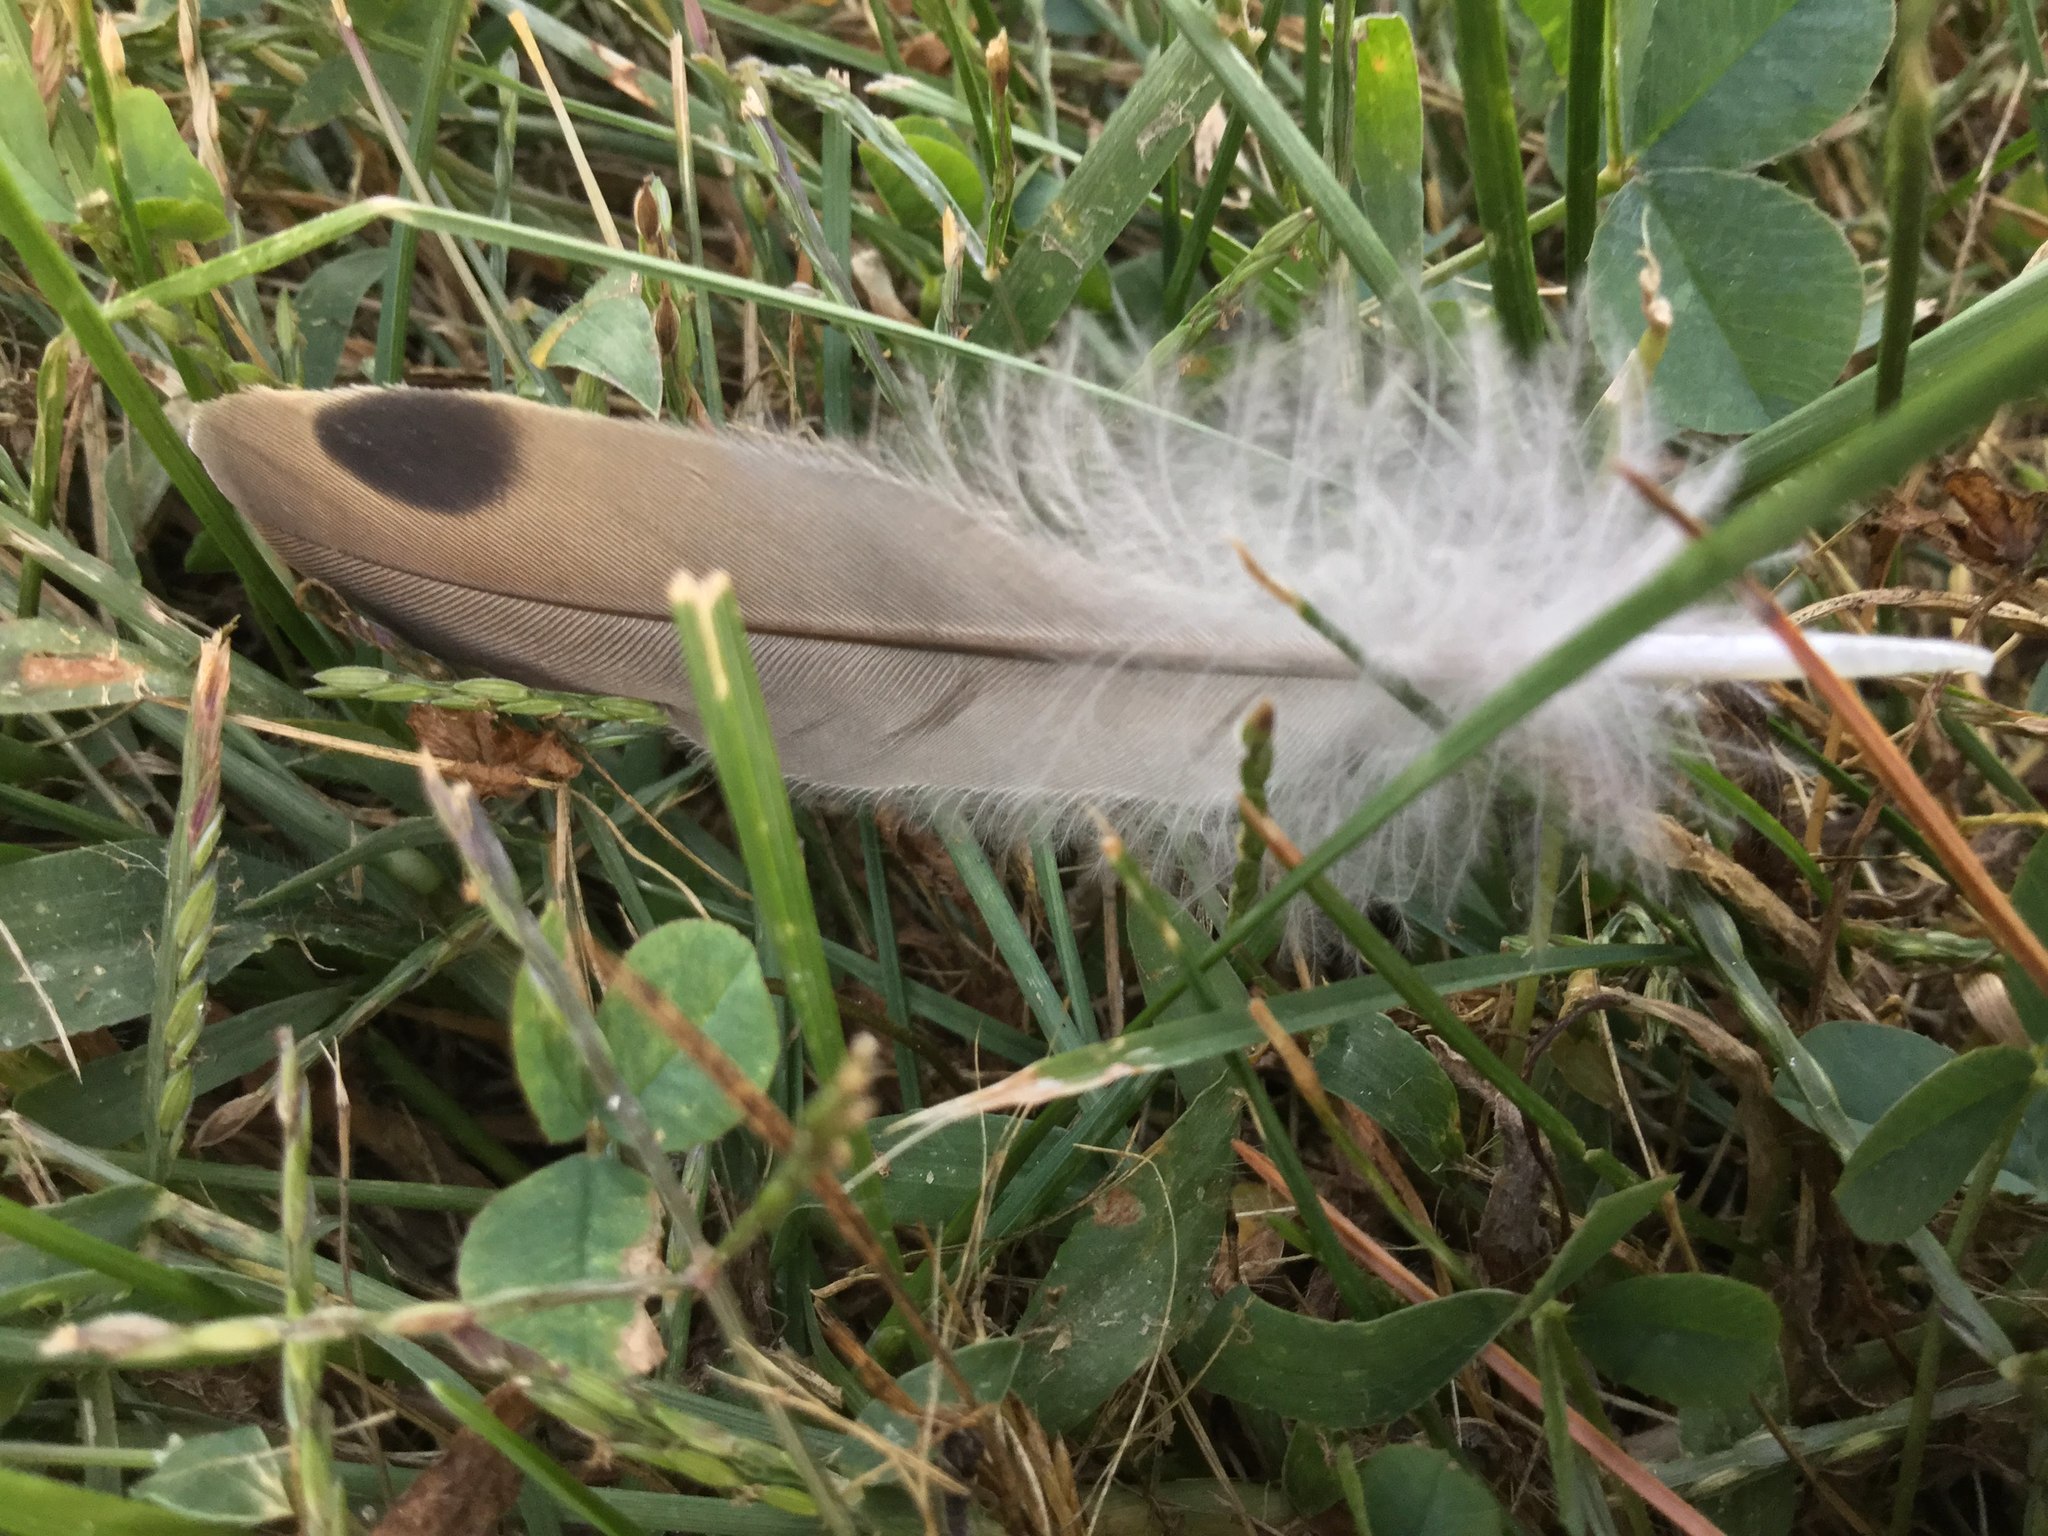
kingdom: Animalia
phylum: Chordata
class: Aves
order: Columbiformes
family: Columbidae
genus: Zenaida
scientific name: Zenaida macroura
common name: Mourning dove
